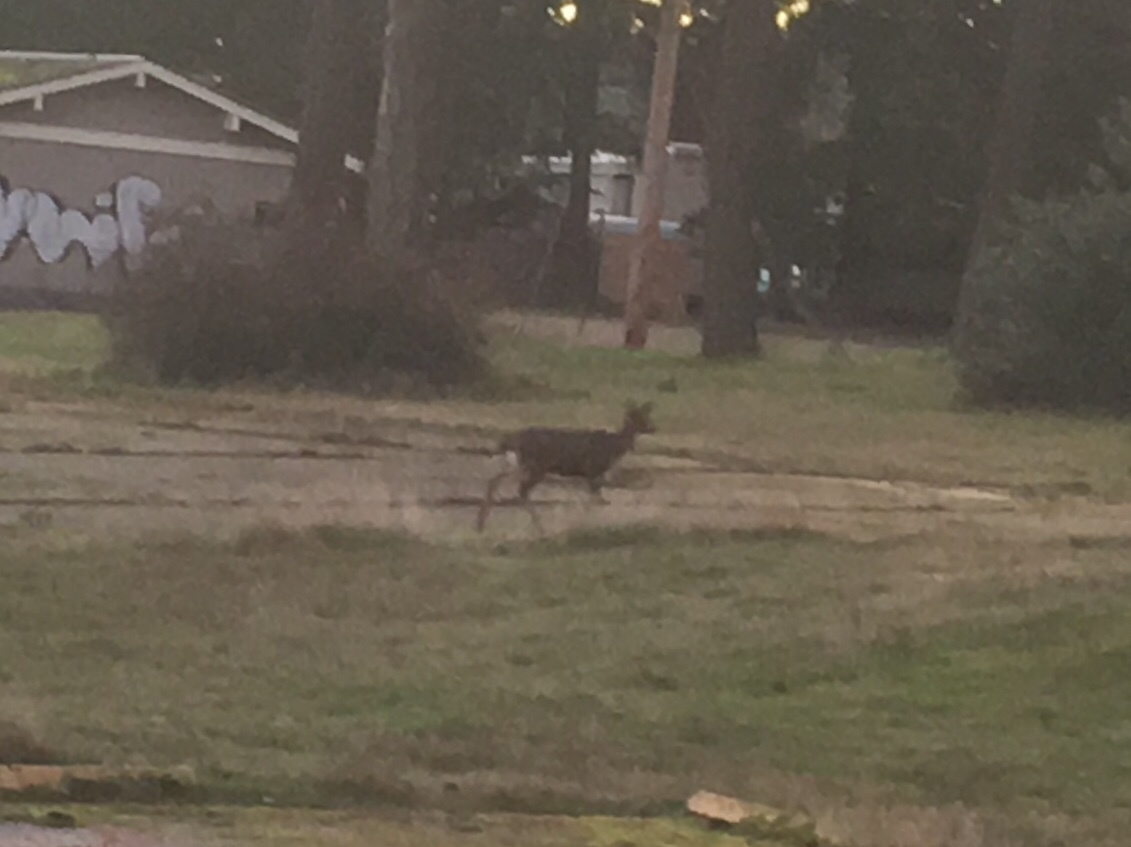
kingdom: Animalia
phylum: Chordata
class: Mammalia
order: Artiodactyla
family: Cervidae
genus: Odocoileus
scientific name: Odocoileus hemionus
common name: Mule deer
